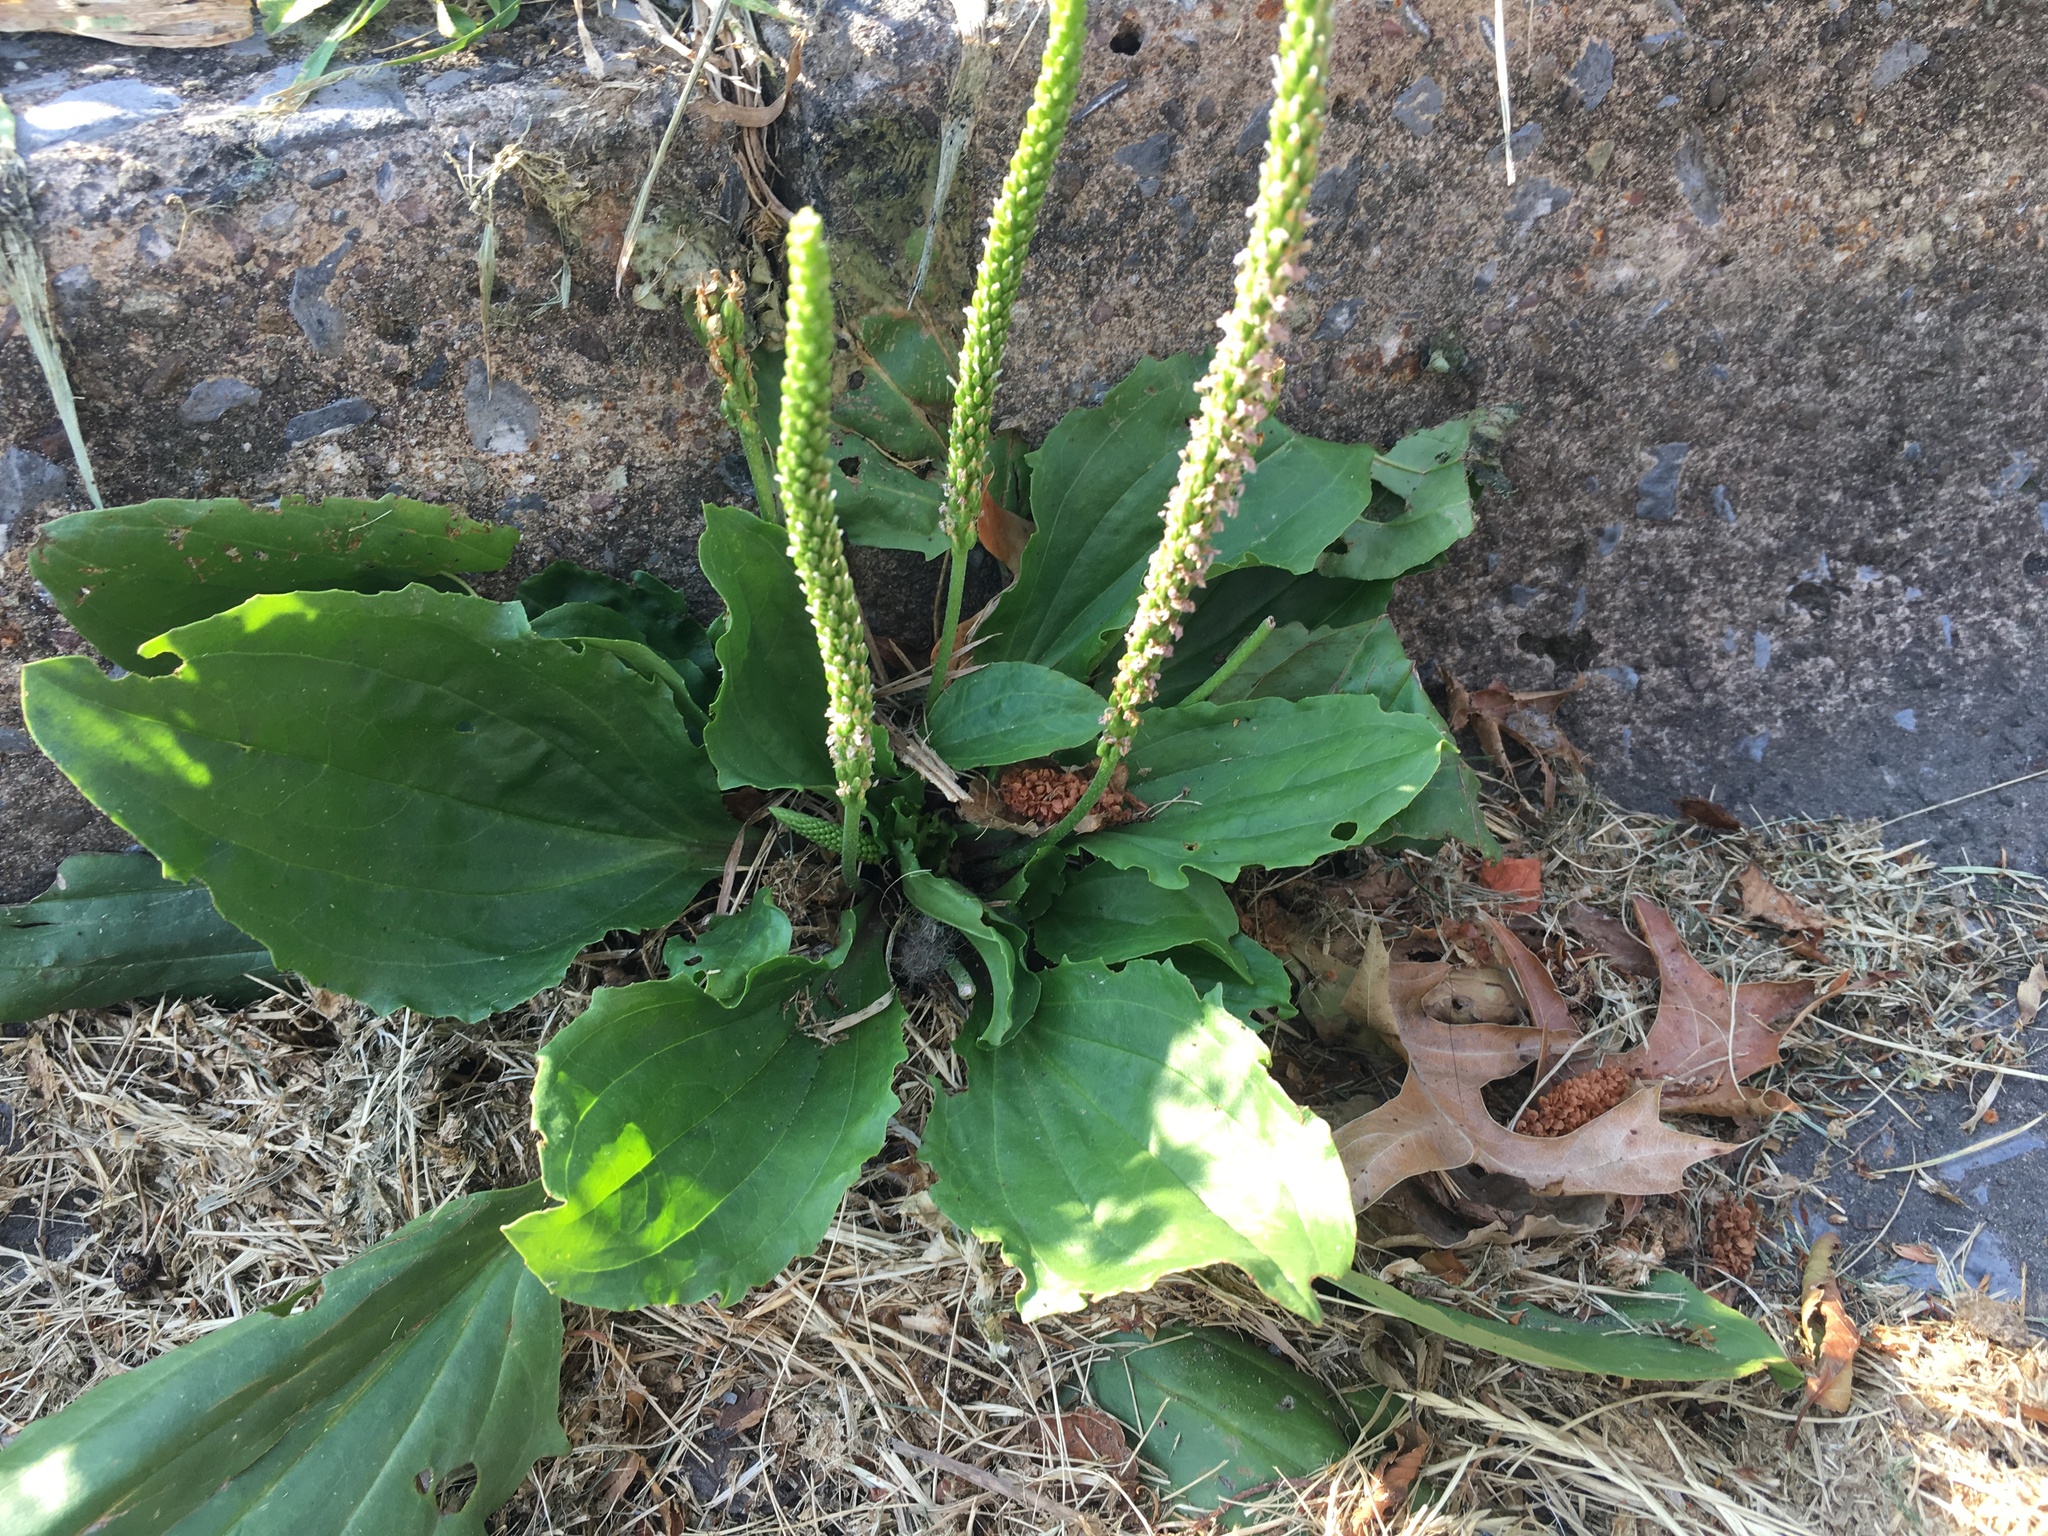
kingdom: Plantae
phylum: Tracheophyta
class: Magnoliopsida
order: Lamiales
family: Plantaginaceae
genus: Plantago
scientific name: Plantago major
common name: Common plantain
